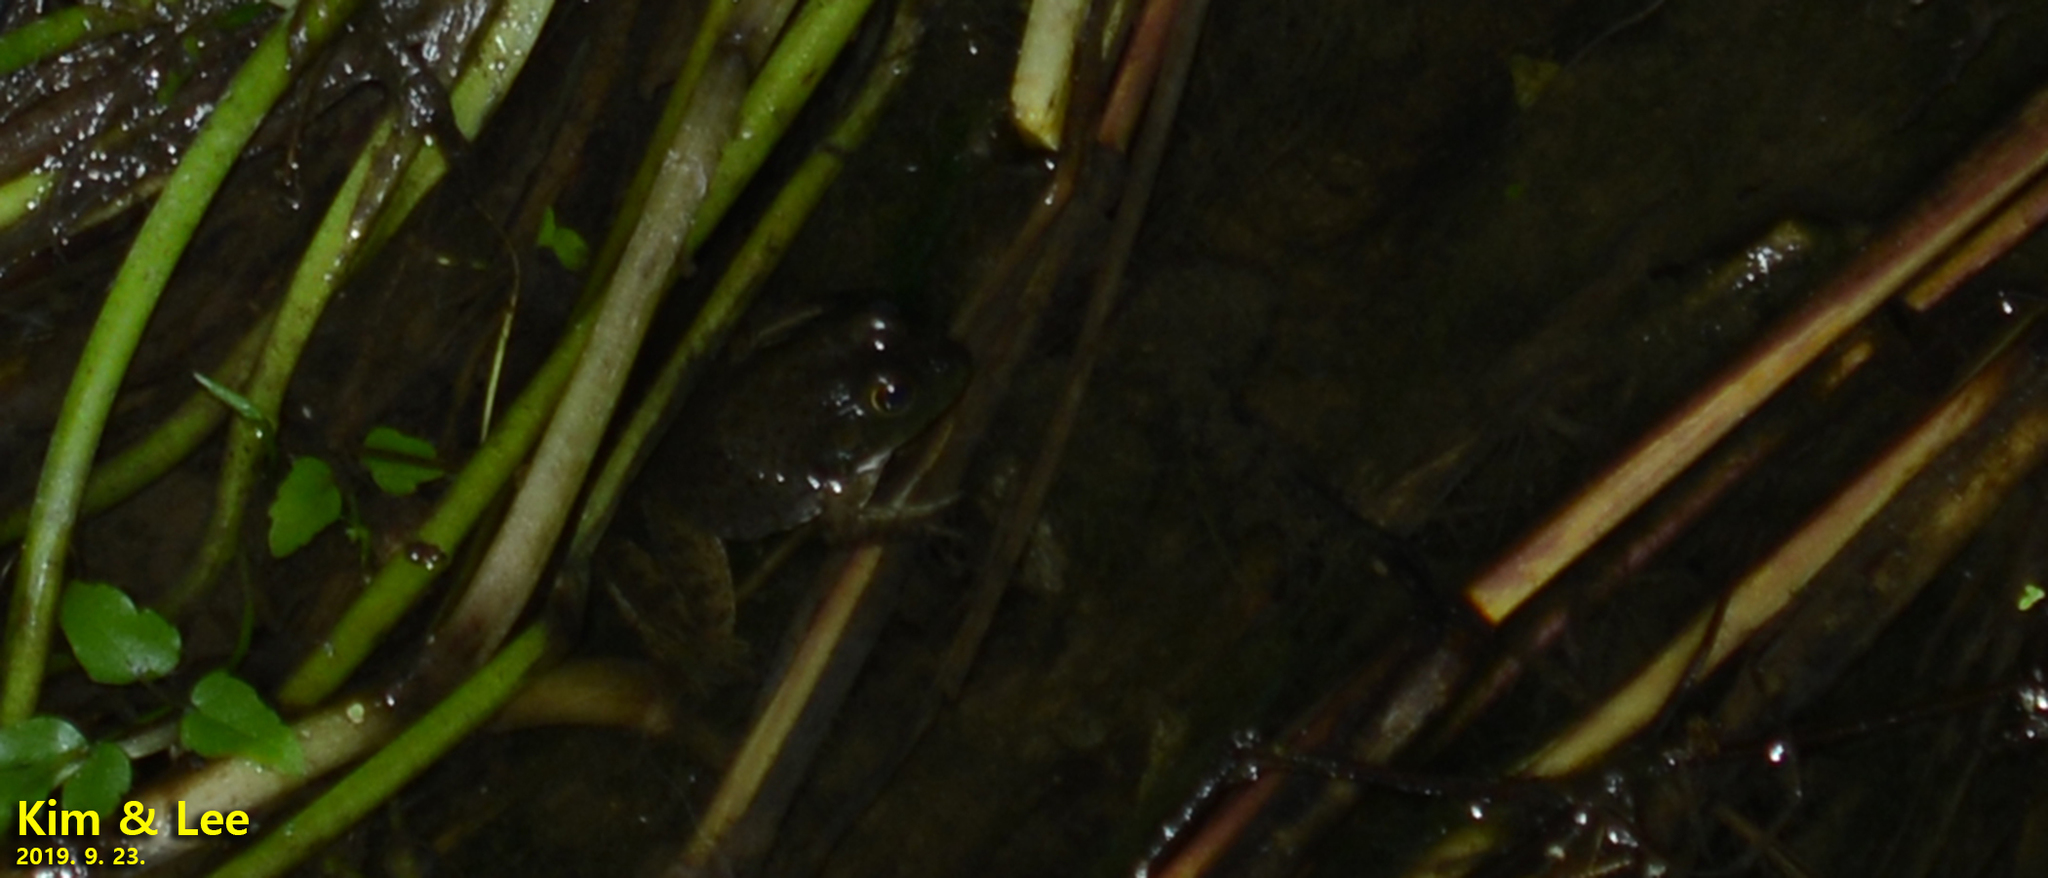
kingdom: Animalia
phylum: Chordata
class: Amphibia
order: Anura
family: Ranidae
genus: Lithobates
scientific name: Lithobates catesbeianus
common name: American bullfrog
